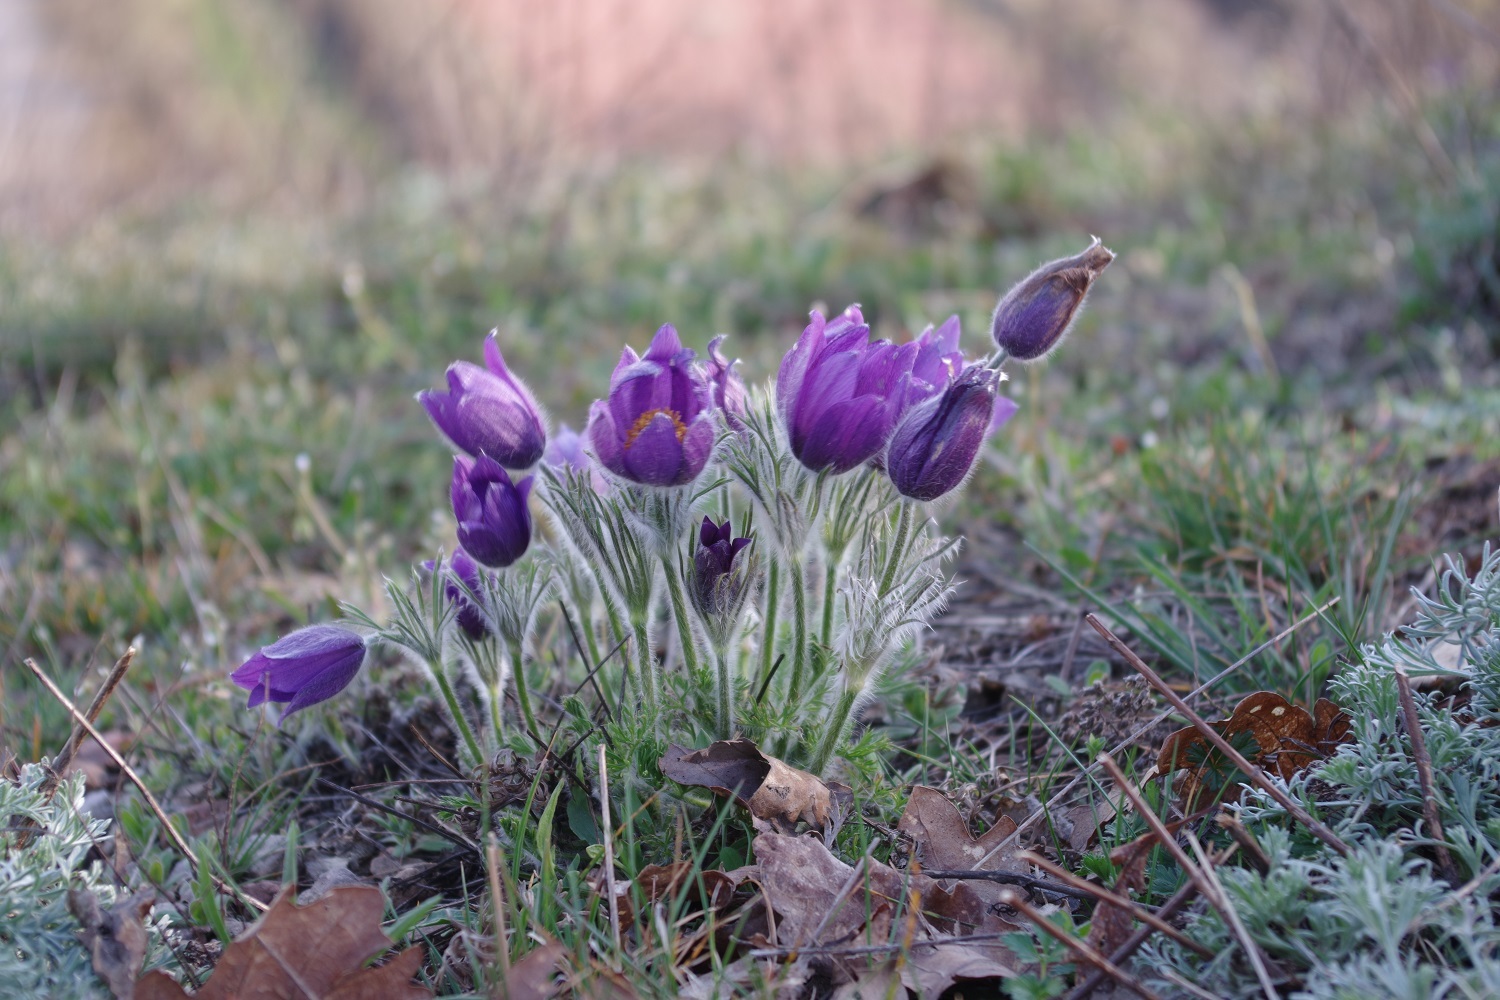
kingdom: Plantae
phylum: Tracheophyta
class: Magnoliopsida
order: Ranunculales
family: Ranunculaceae
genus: Pulsatilla
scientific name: Pulsatilla vulgaris
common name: Pasqueflower
